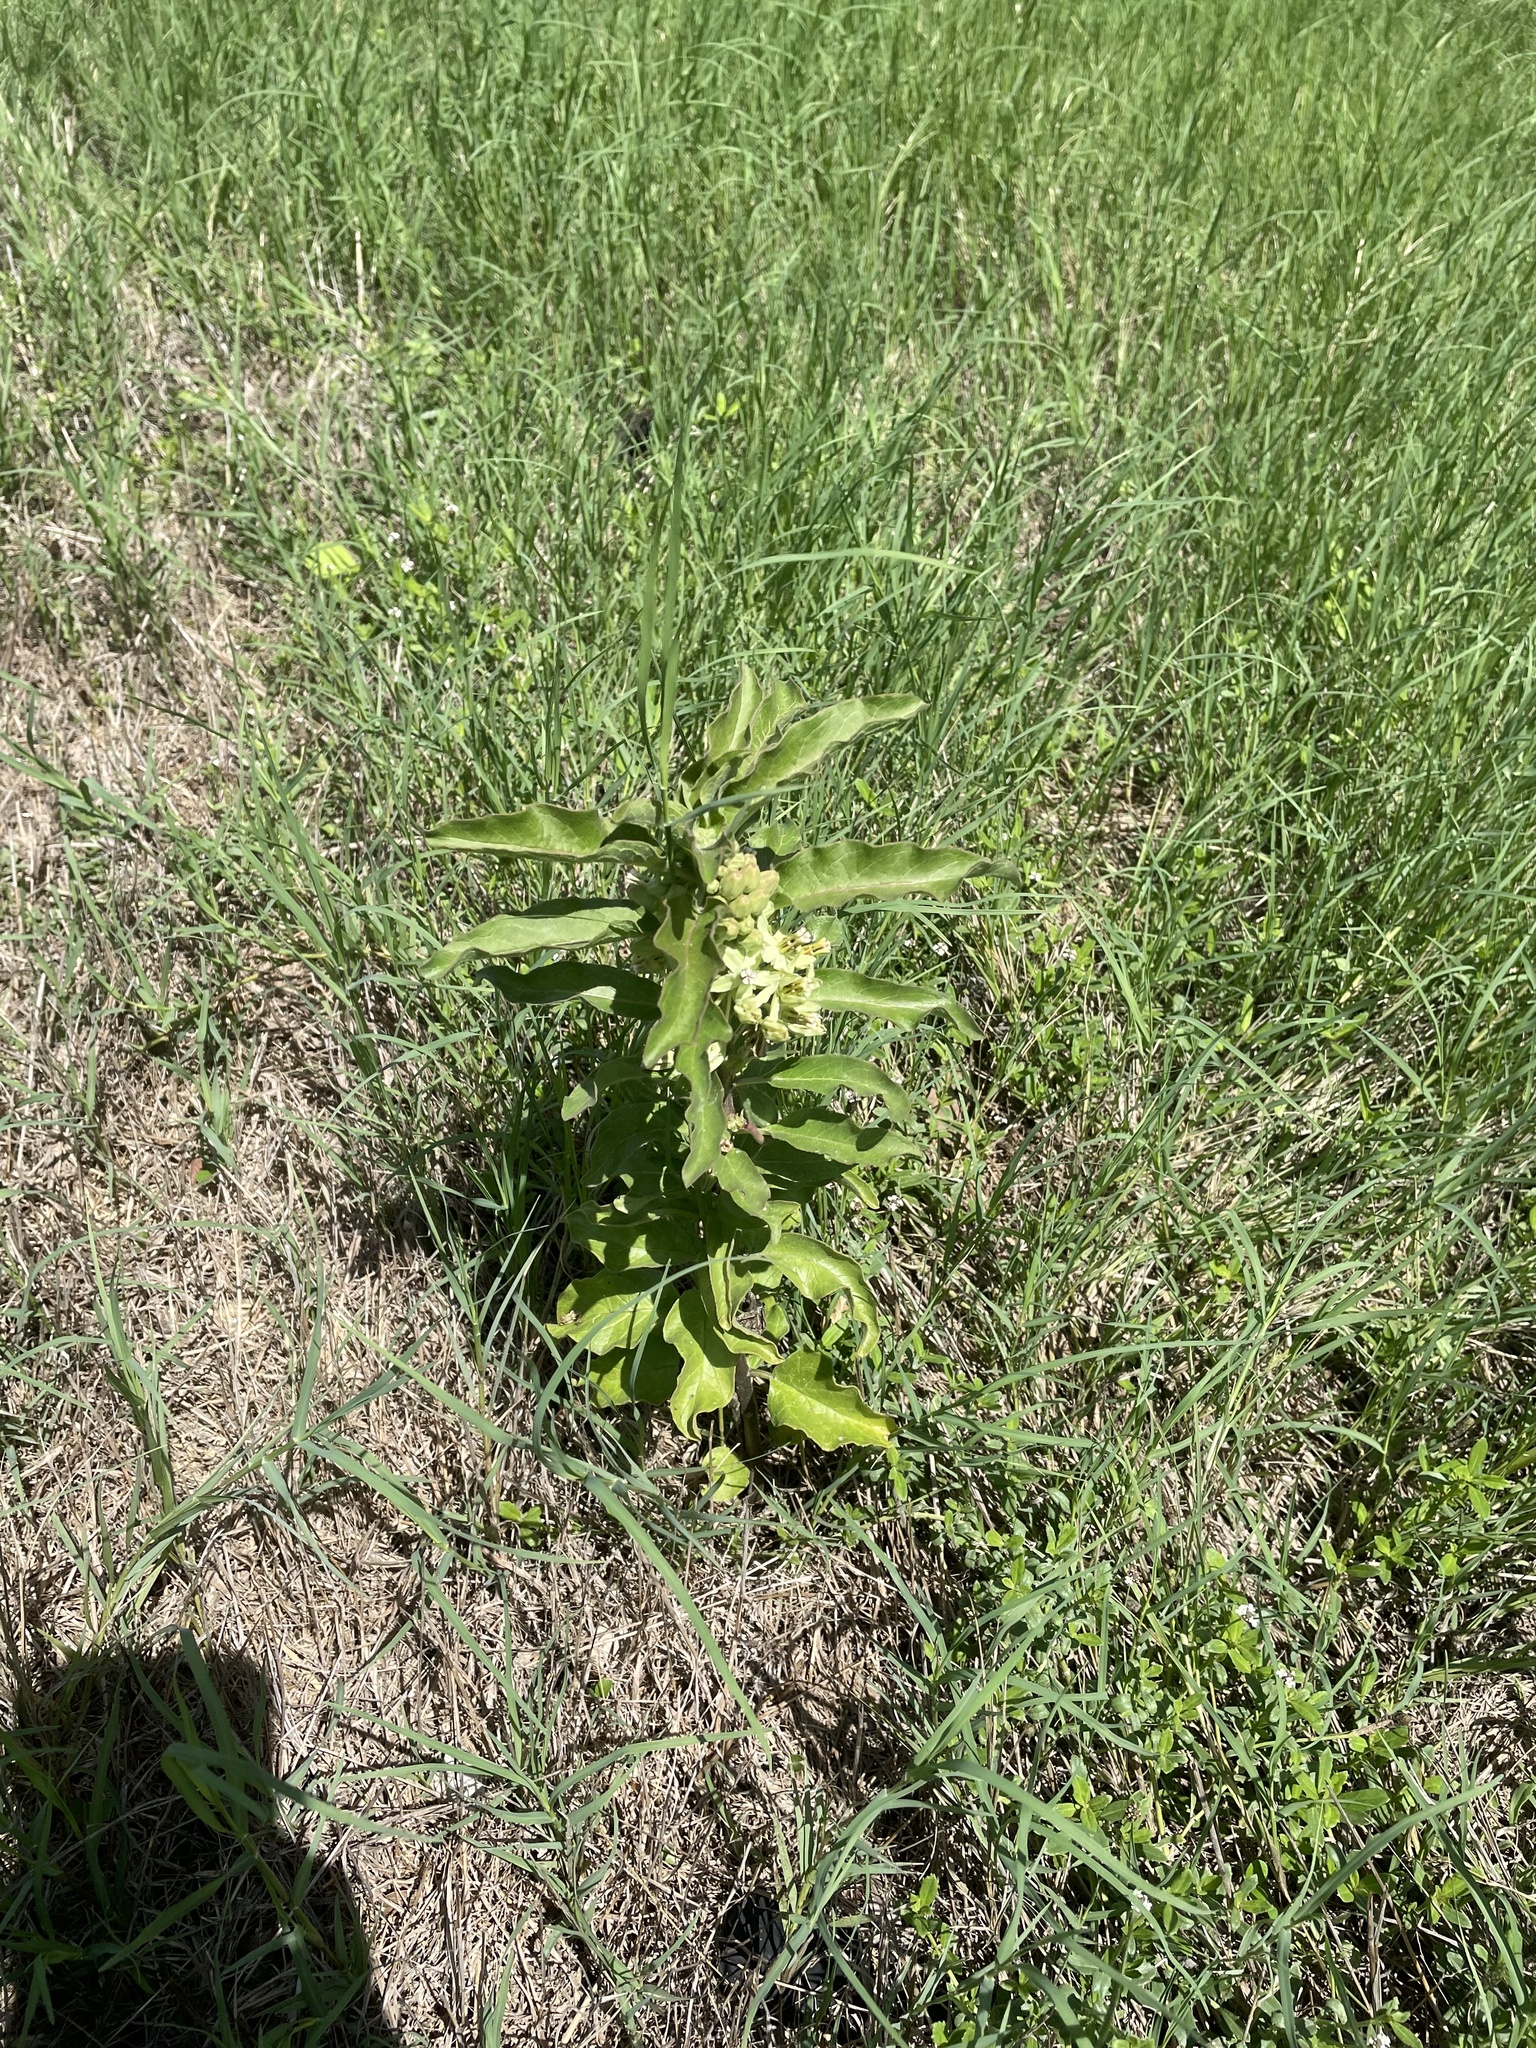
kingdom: Plantae
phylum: Tracheophyta
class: Magnoliopsida
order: Gentianales
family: Apocynaceae
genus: Asclepias
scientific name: Asclepias oenotheroides
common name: Zizotes milkweed
